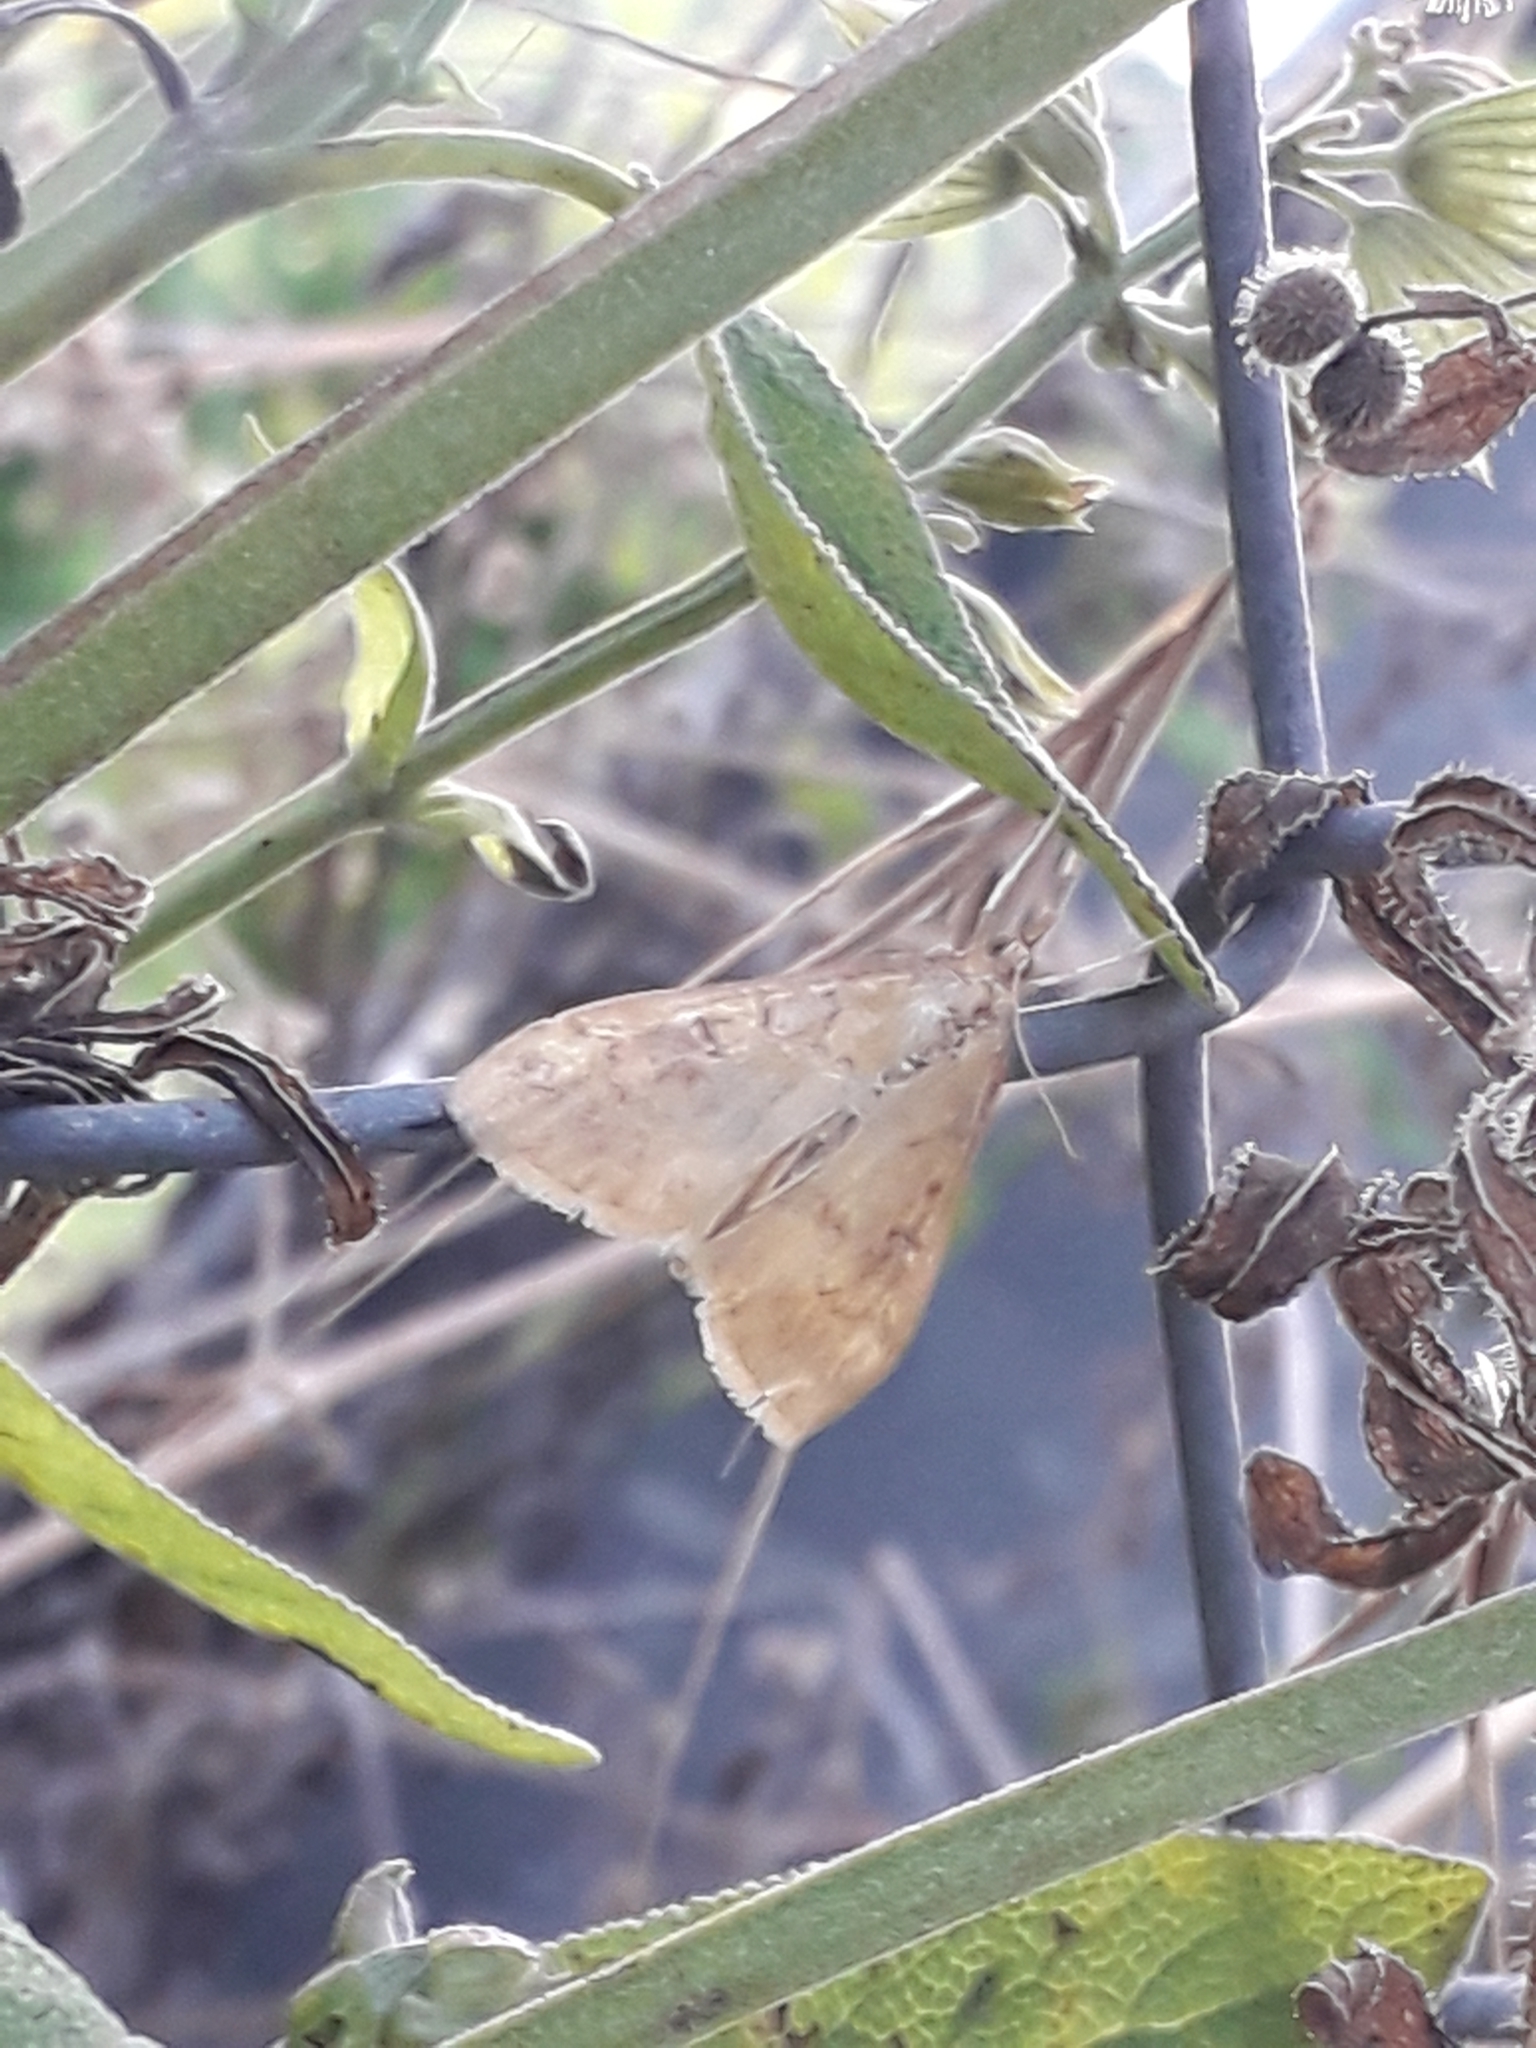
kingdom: Animalia
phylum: Arthropoda
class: Insecta
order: Lepidoptera
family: Crambidae
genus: Ostrinia
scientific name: Ostrinia nubilalis
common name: European corn borer
